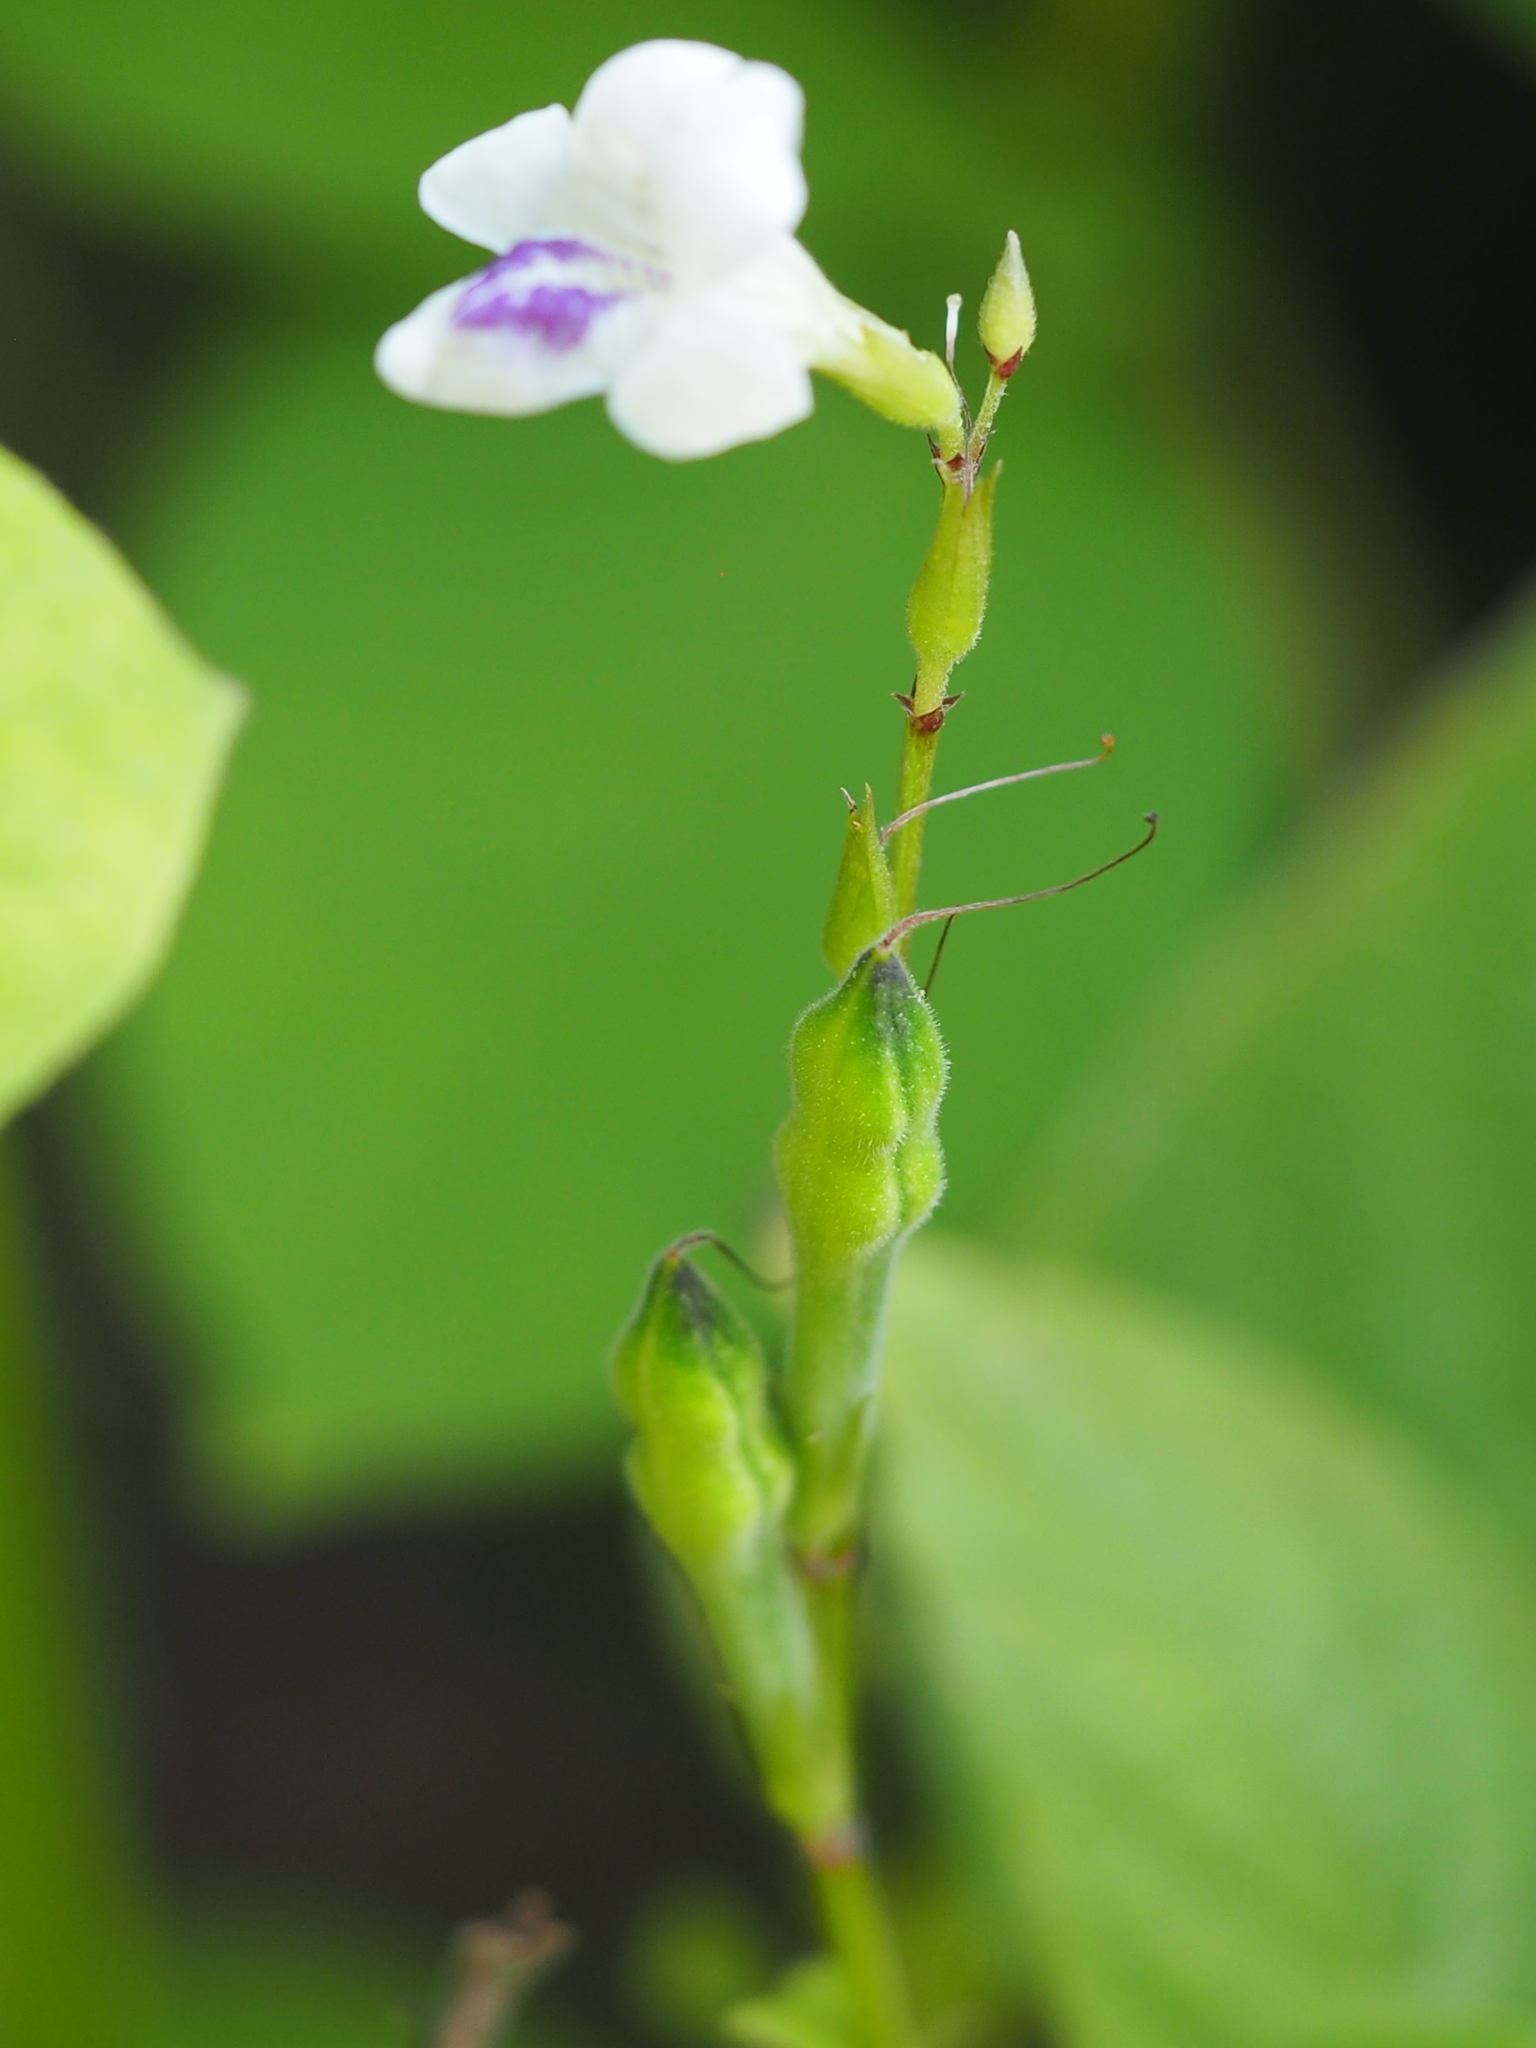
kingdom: Plantae
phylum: Tracheophyta
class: Magnoliopsida
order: Lamiales
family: Acanthaceae
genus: Asystasia
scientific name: Asystasia intrusa
